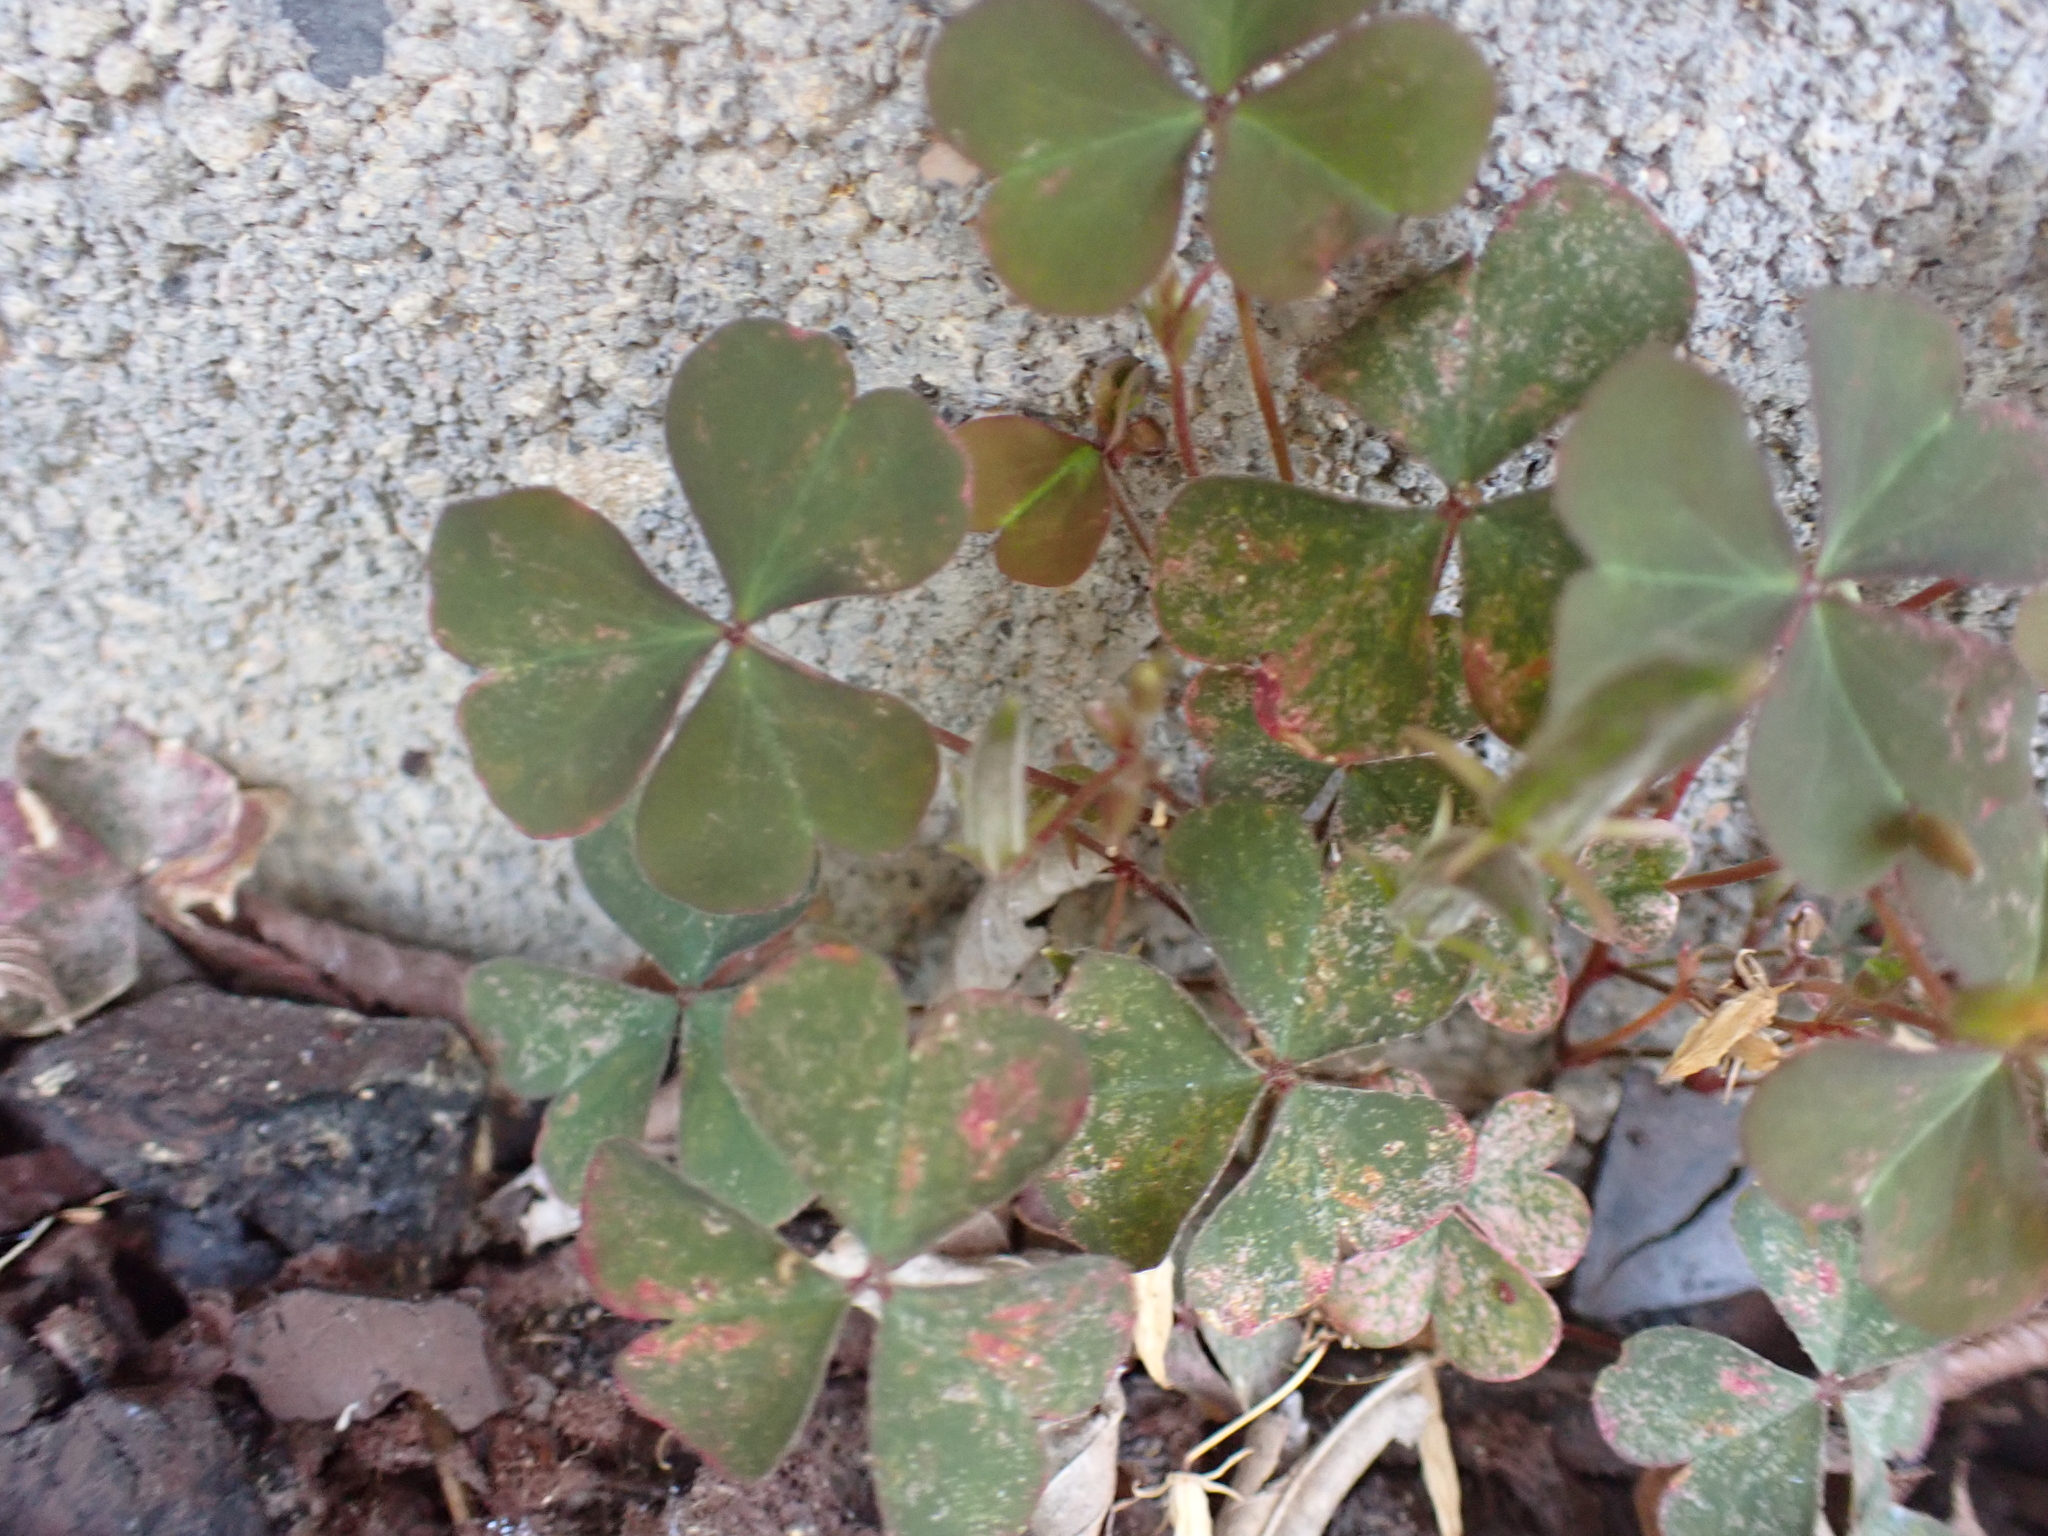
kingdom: Plantae
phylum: Tracheophyta
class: Magnoliopsida
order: Oxalidales
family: Oxalidaceae
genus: Oxalis
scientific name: Oxalis corniculata
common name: Procumbent yellow-sorrel
